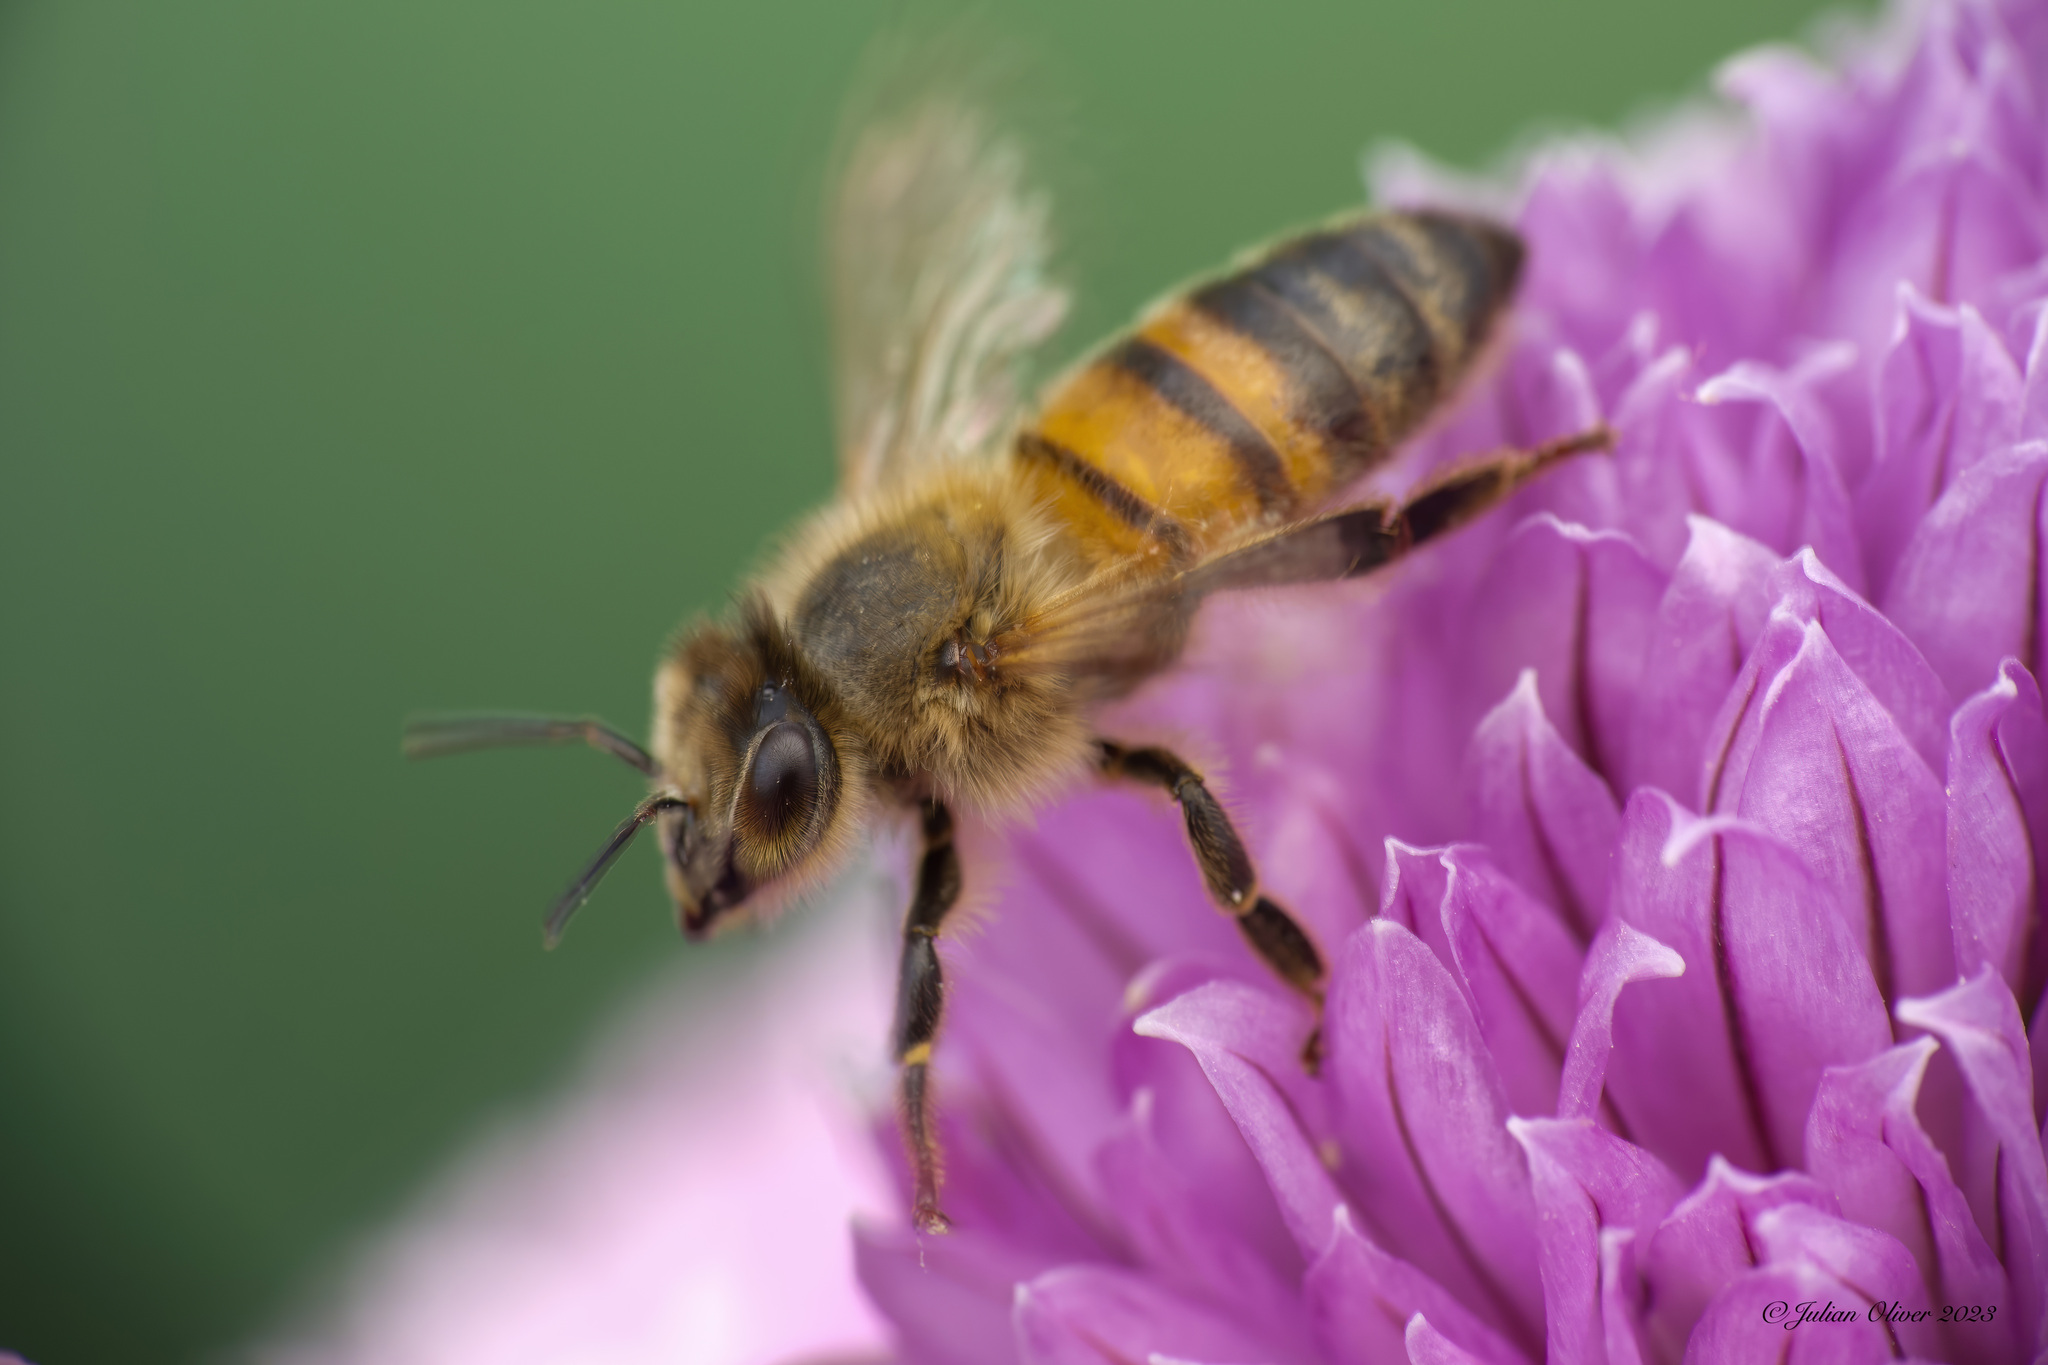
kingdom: Animalia
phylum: Arthropoda
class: Insecta
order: Hymenoptera
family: Apidae
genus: Apis
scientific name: Apis mellifera
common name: Honey bee
